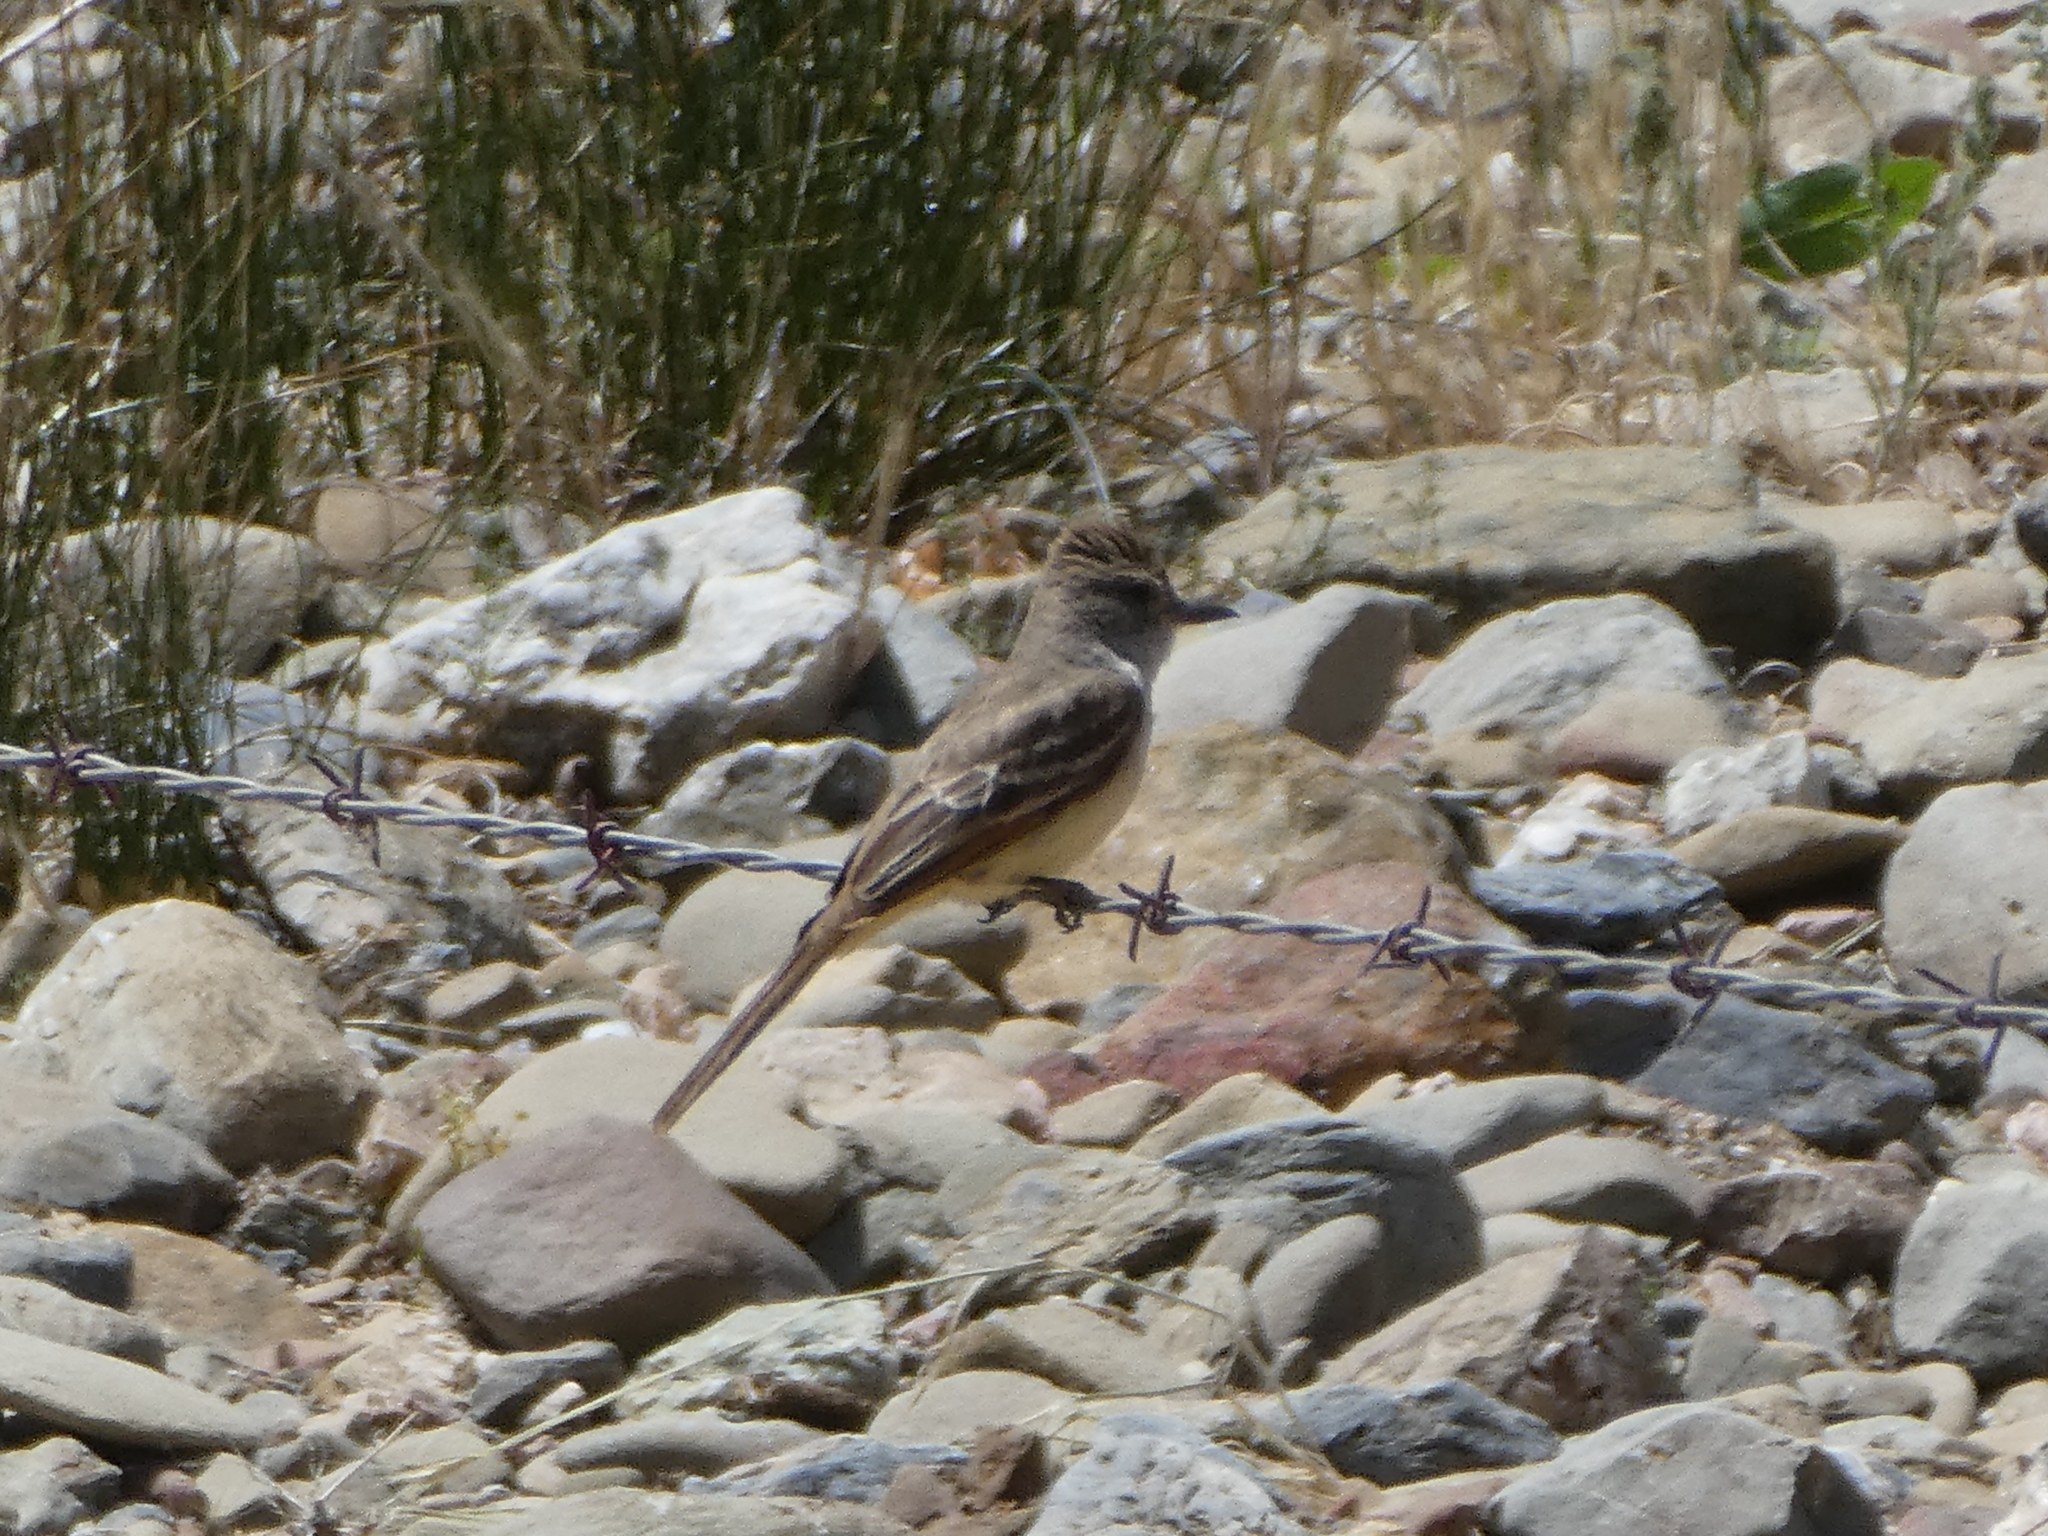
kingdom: Animalia
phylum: Chordata
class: Aves
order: Passeriformes
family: Tyrannidae
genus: Myiarchus
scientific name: Myiarchus cinerascens
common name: Ash-throated flycatcher
